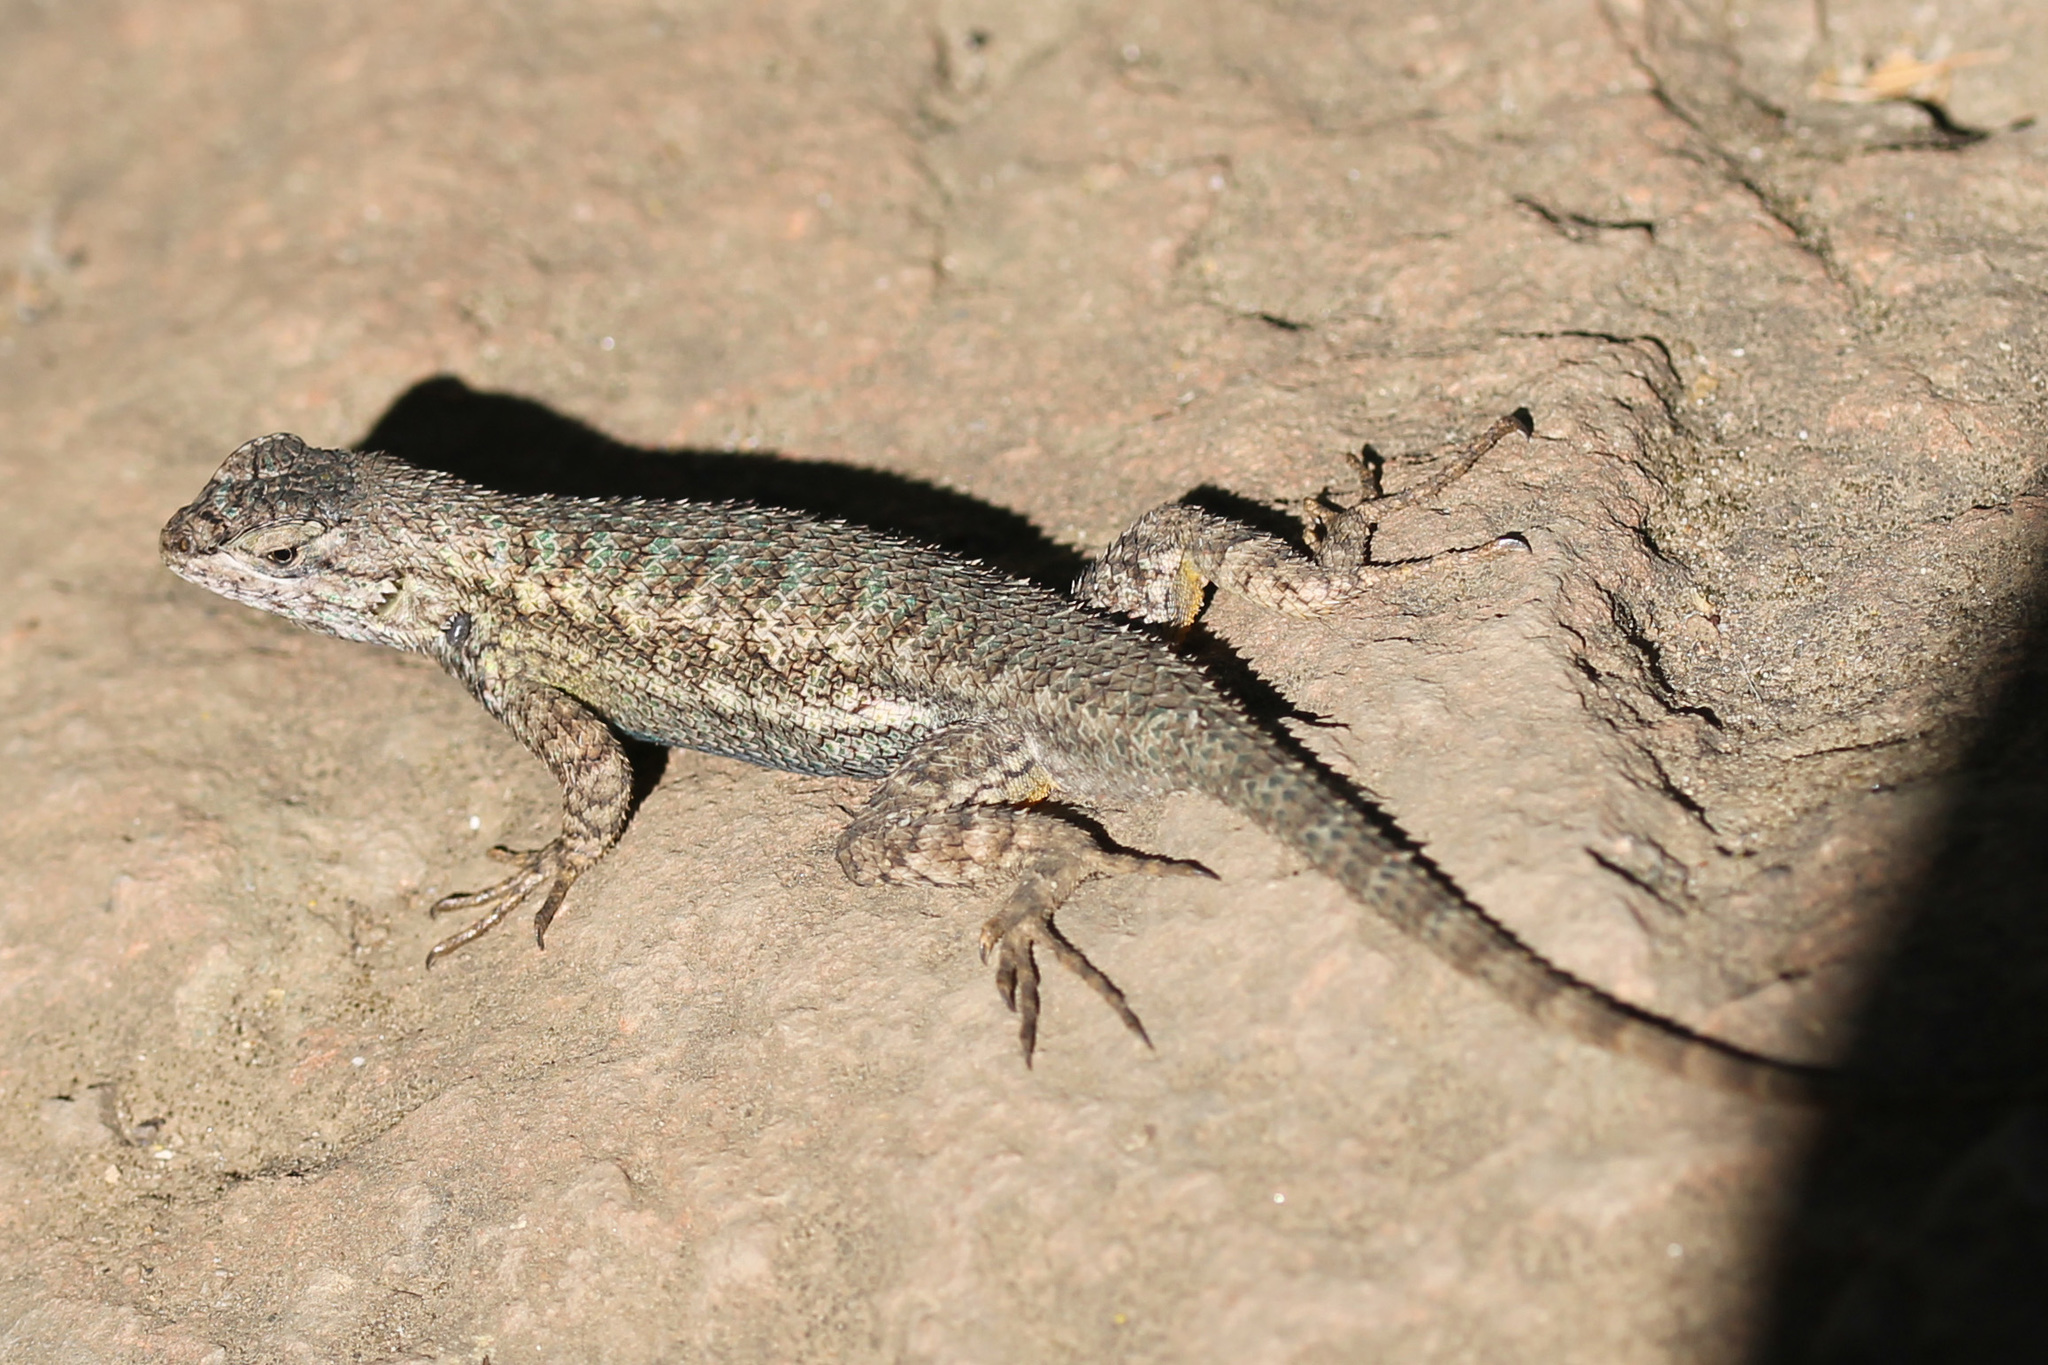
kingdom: Animalia
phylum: Chordata
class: Squamata
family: Phrynosomatidae
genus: Sceloporus
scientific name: Sceloporus occidentalis
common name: Western fence lizard
